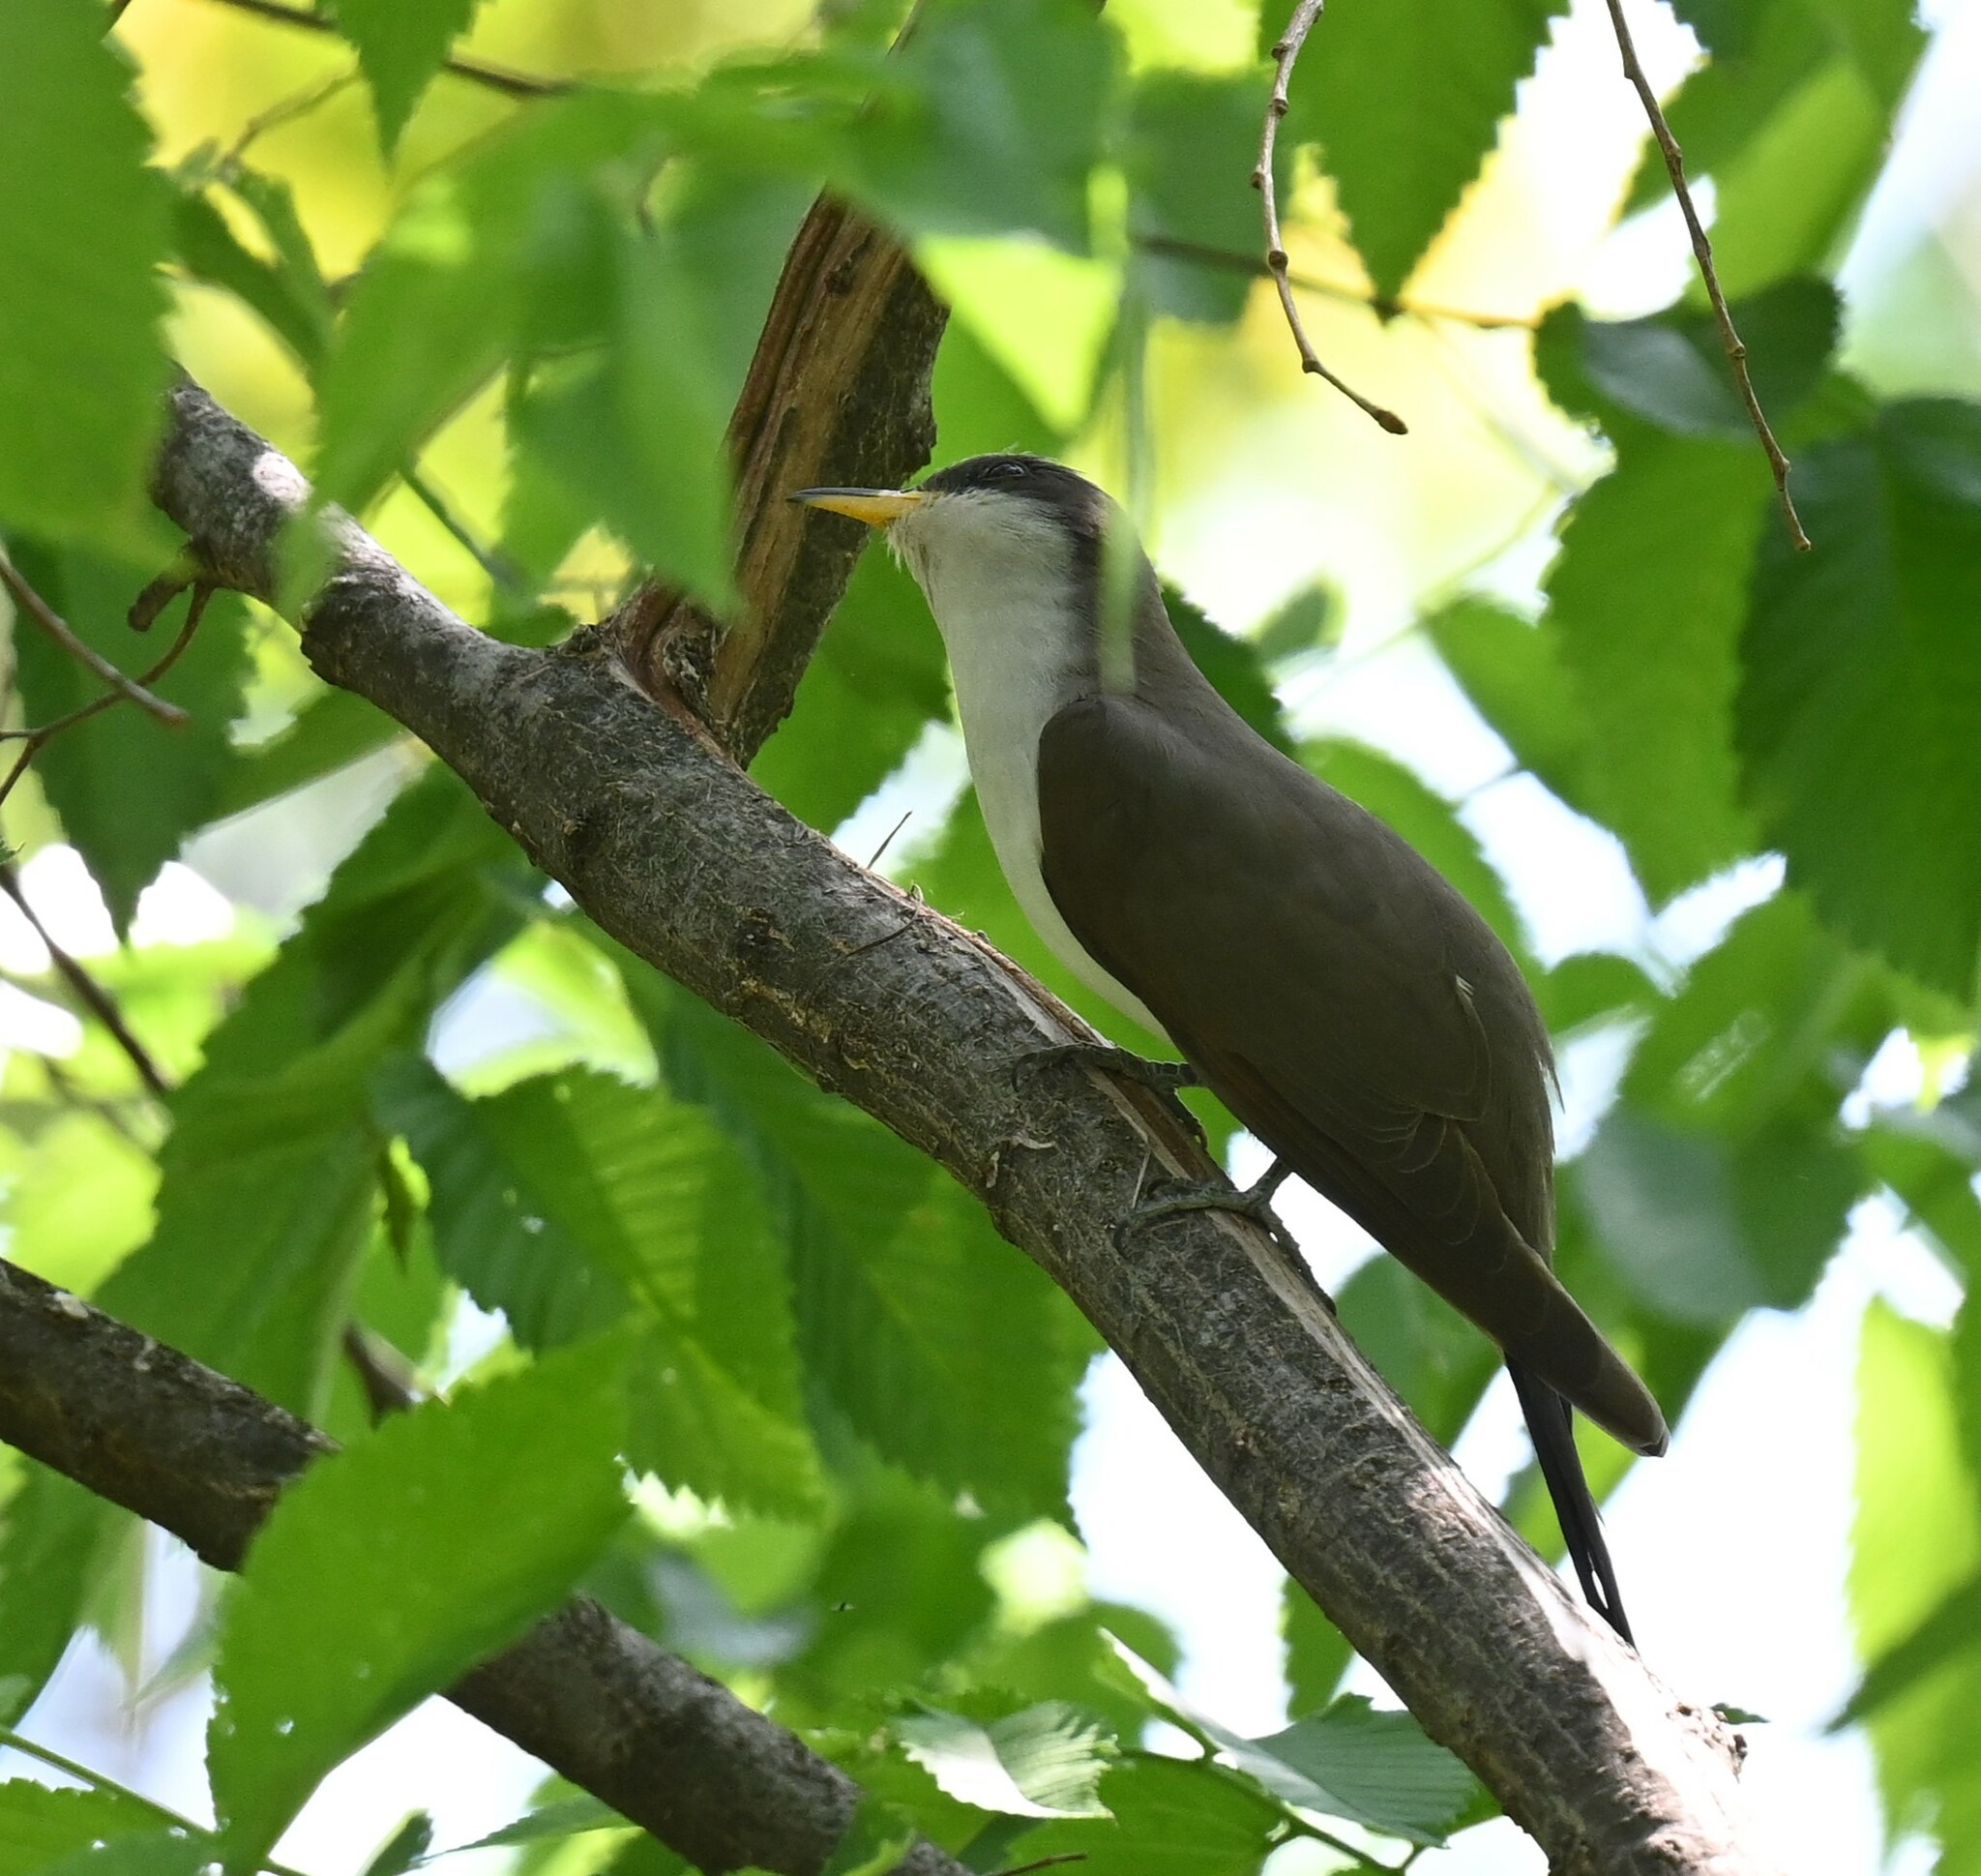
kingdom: Animalia
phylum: Chordata
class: Aves
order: Cuculiformes
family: Cuculidae
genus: Coccyzus
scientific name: Coccyzus americanus
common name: Yellow-billed cuckoo
